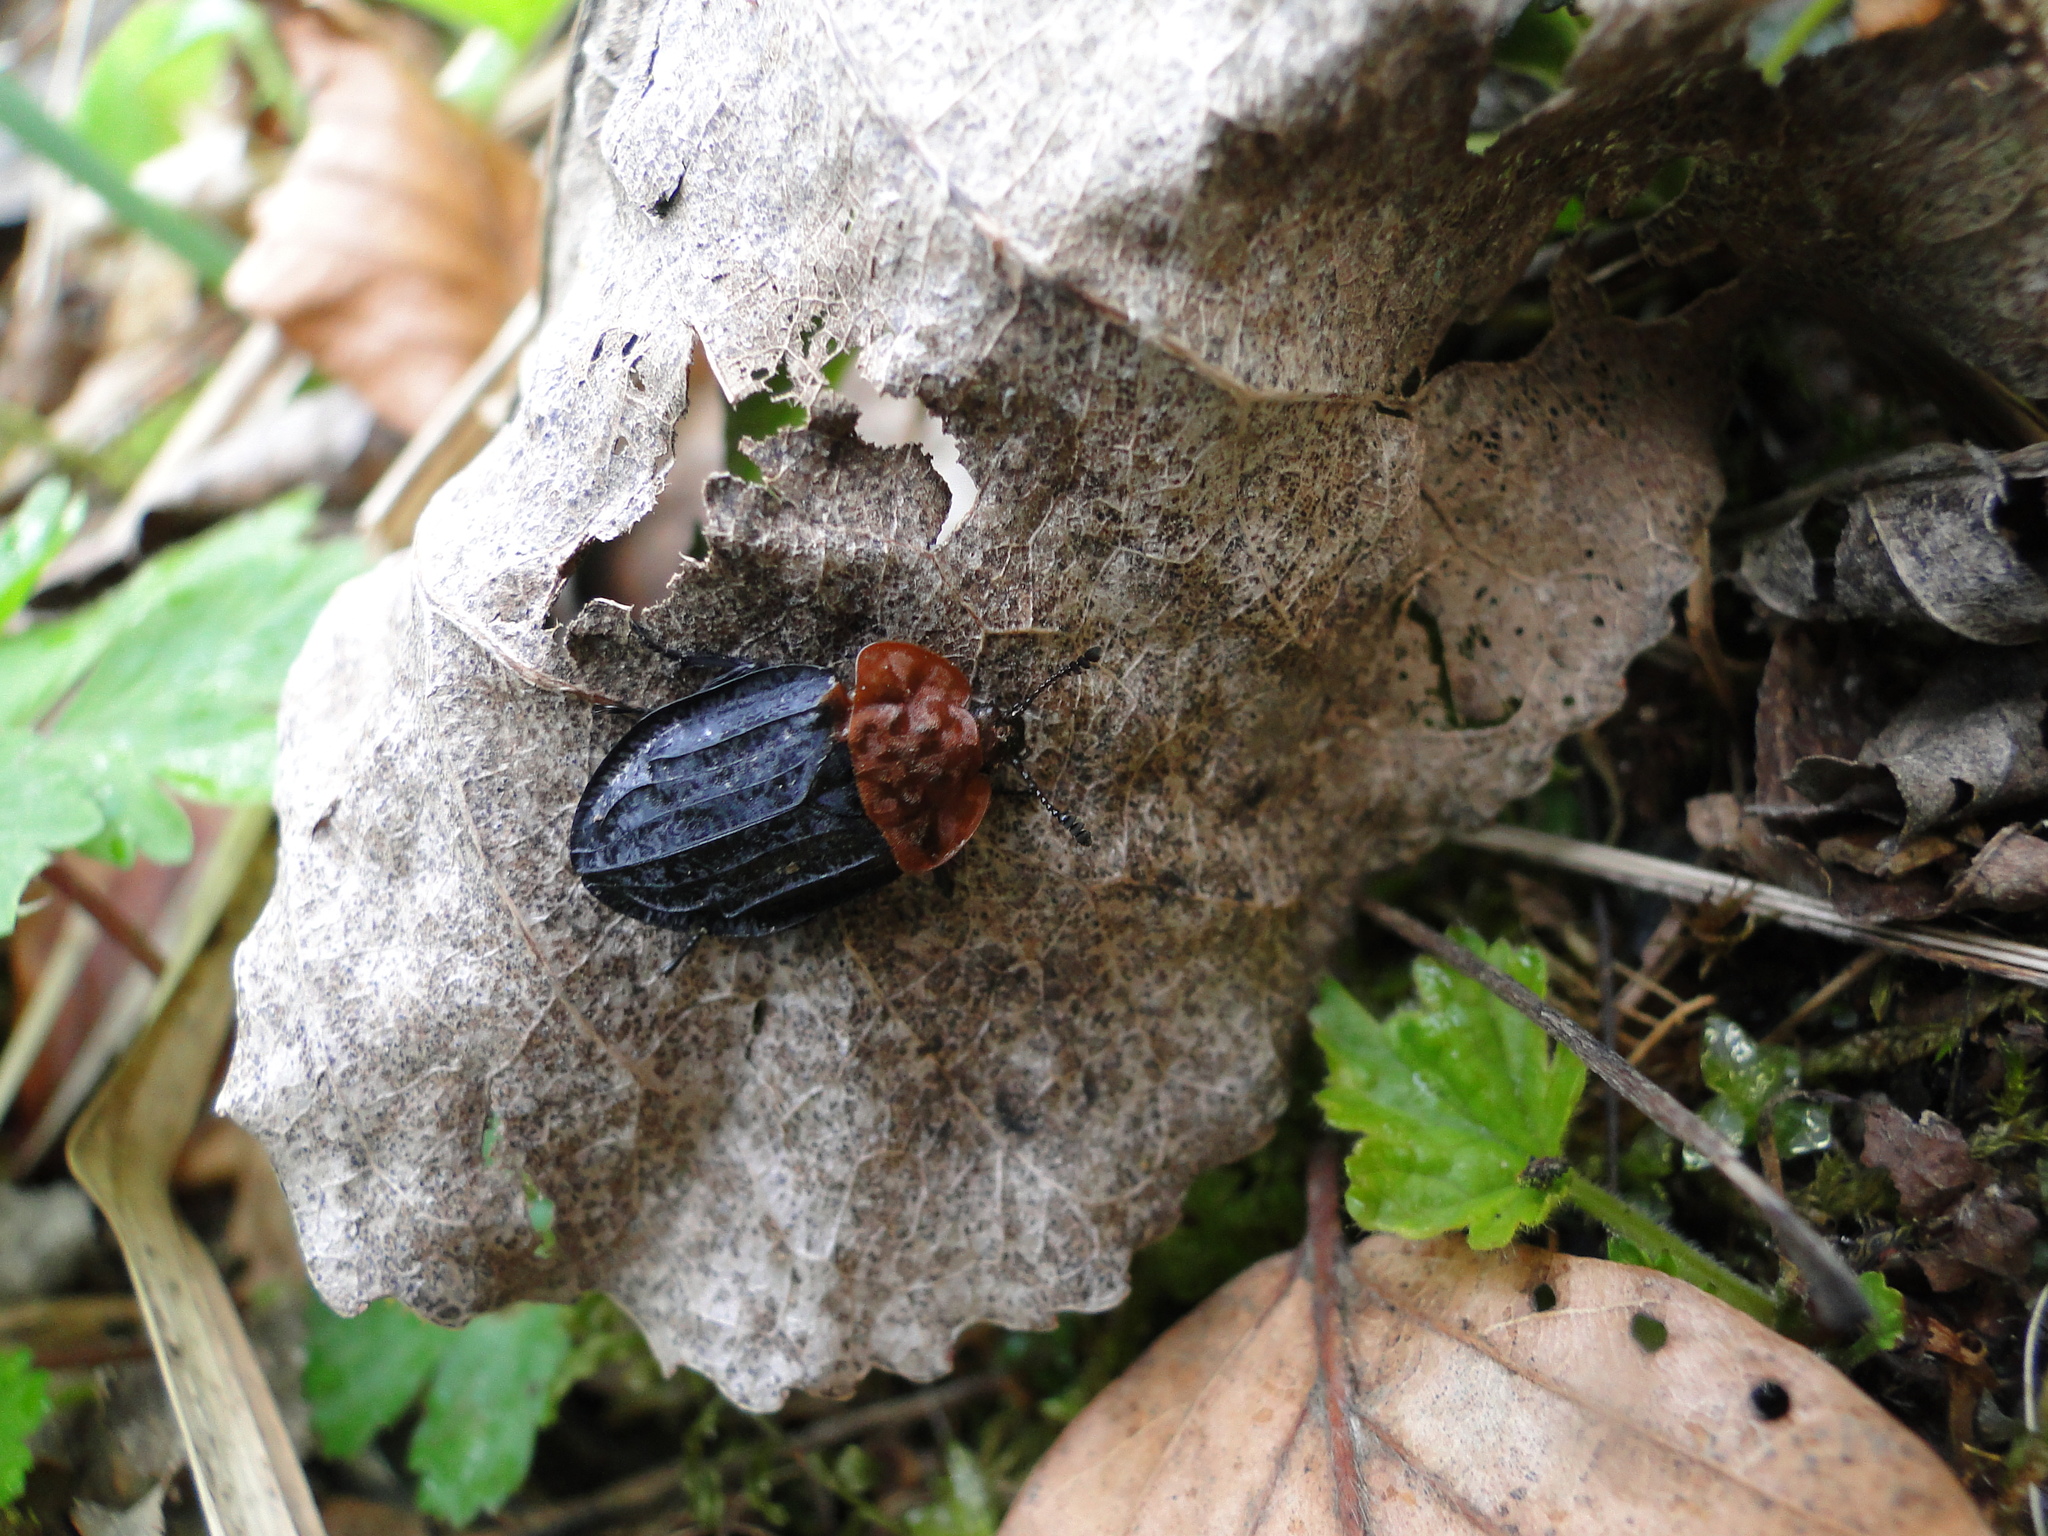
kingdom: Animalia
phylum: Arthropoda
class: Insecta
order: Coleoptera
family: Staphylinidae
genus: Oiceoptoma
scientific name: Oiceoptoma thoracicum
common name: Red-breasted carrion beetle
